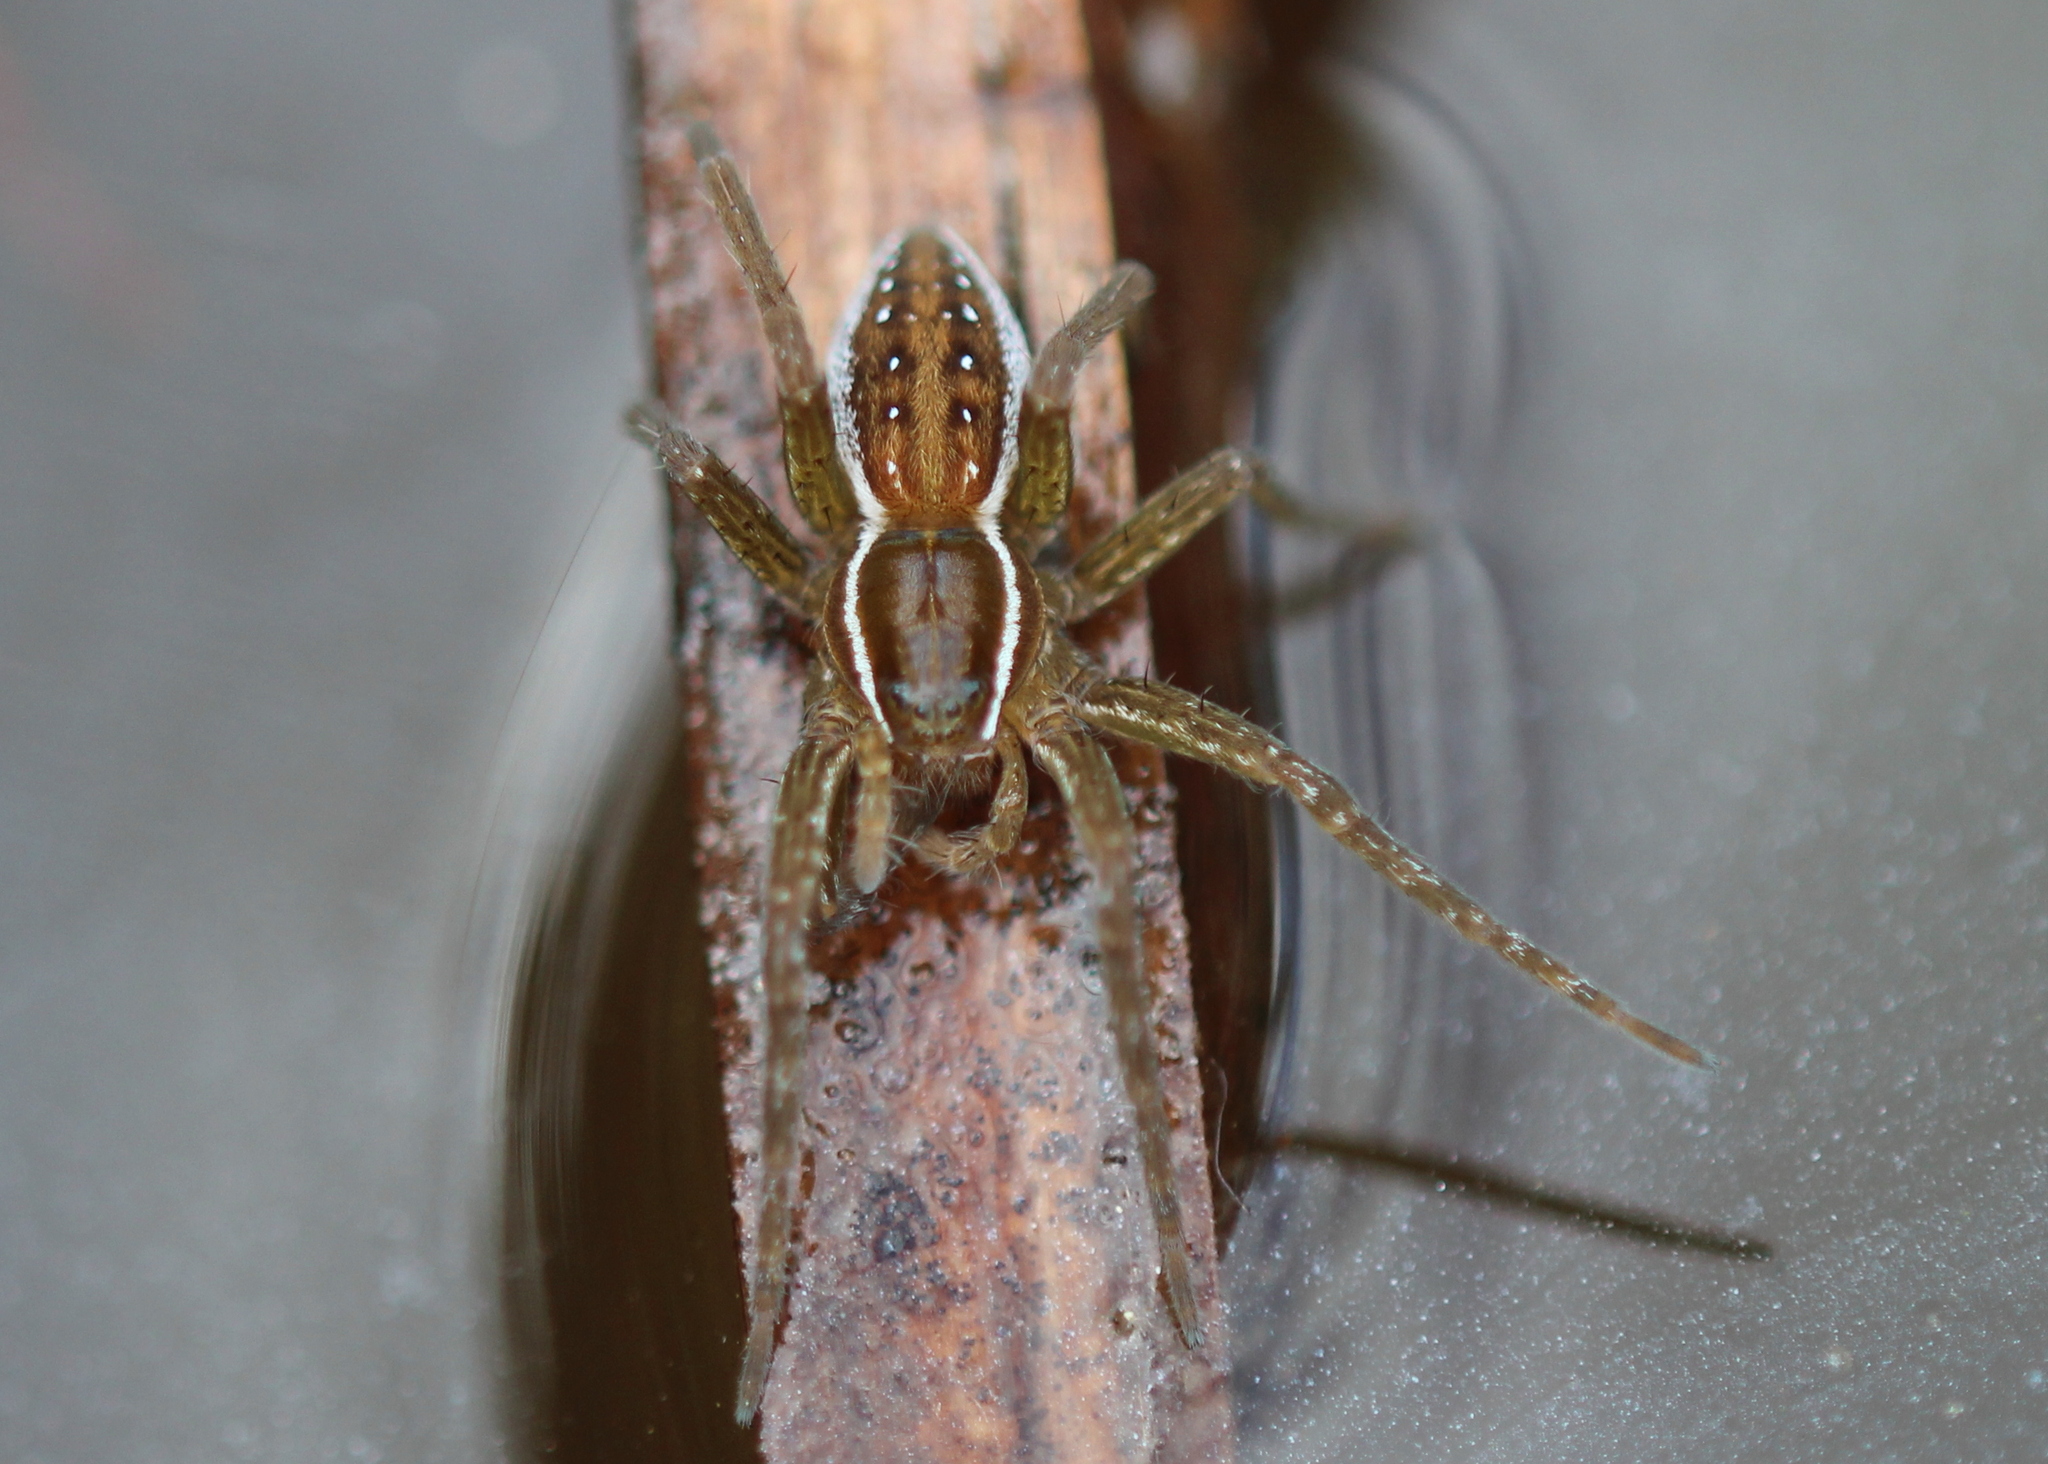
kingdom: Animalia
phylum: Arthropoda
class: Arachnida
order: Araneae
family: Pisauridae
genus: Dolomedes
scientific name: Dolomedes triton
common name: Six-spotted fishing spider
